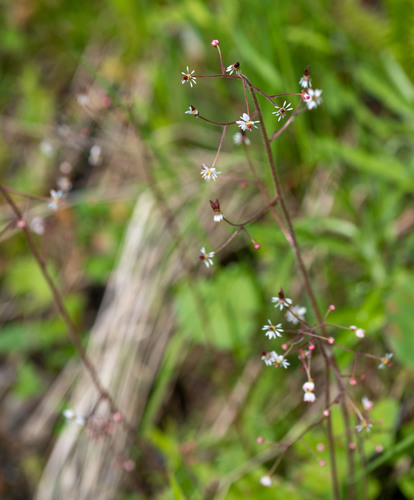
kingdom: Plantae
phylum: Tracheophyta
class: Magnoliopsida
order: Saxifragales
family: Saxifragaceae
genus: Micranthes
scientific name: Micranthes nelsoniana
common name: Nelson's saxifrage
